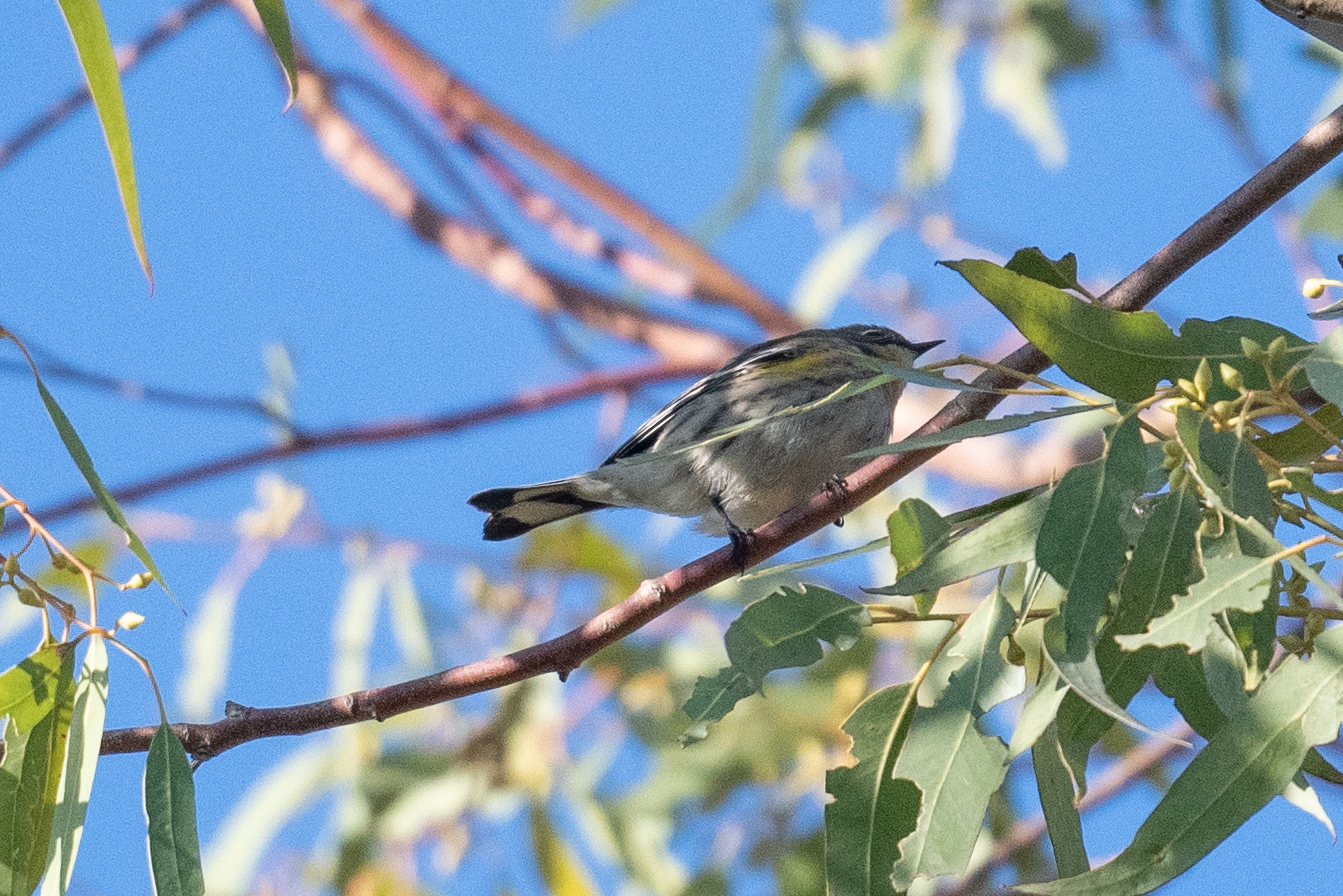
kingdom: Animalia
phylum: Chordata
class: Aves
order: Passeriformes
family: Parulidae
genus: Setophaga
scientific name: Setophaga coronata
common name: Myrtle warbler
